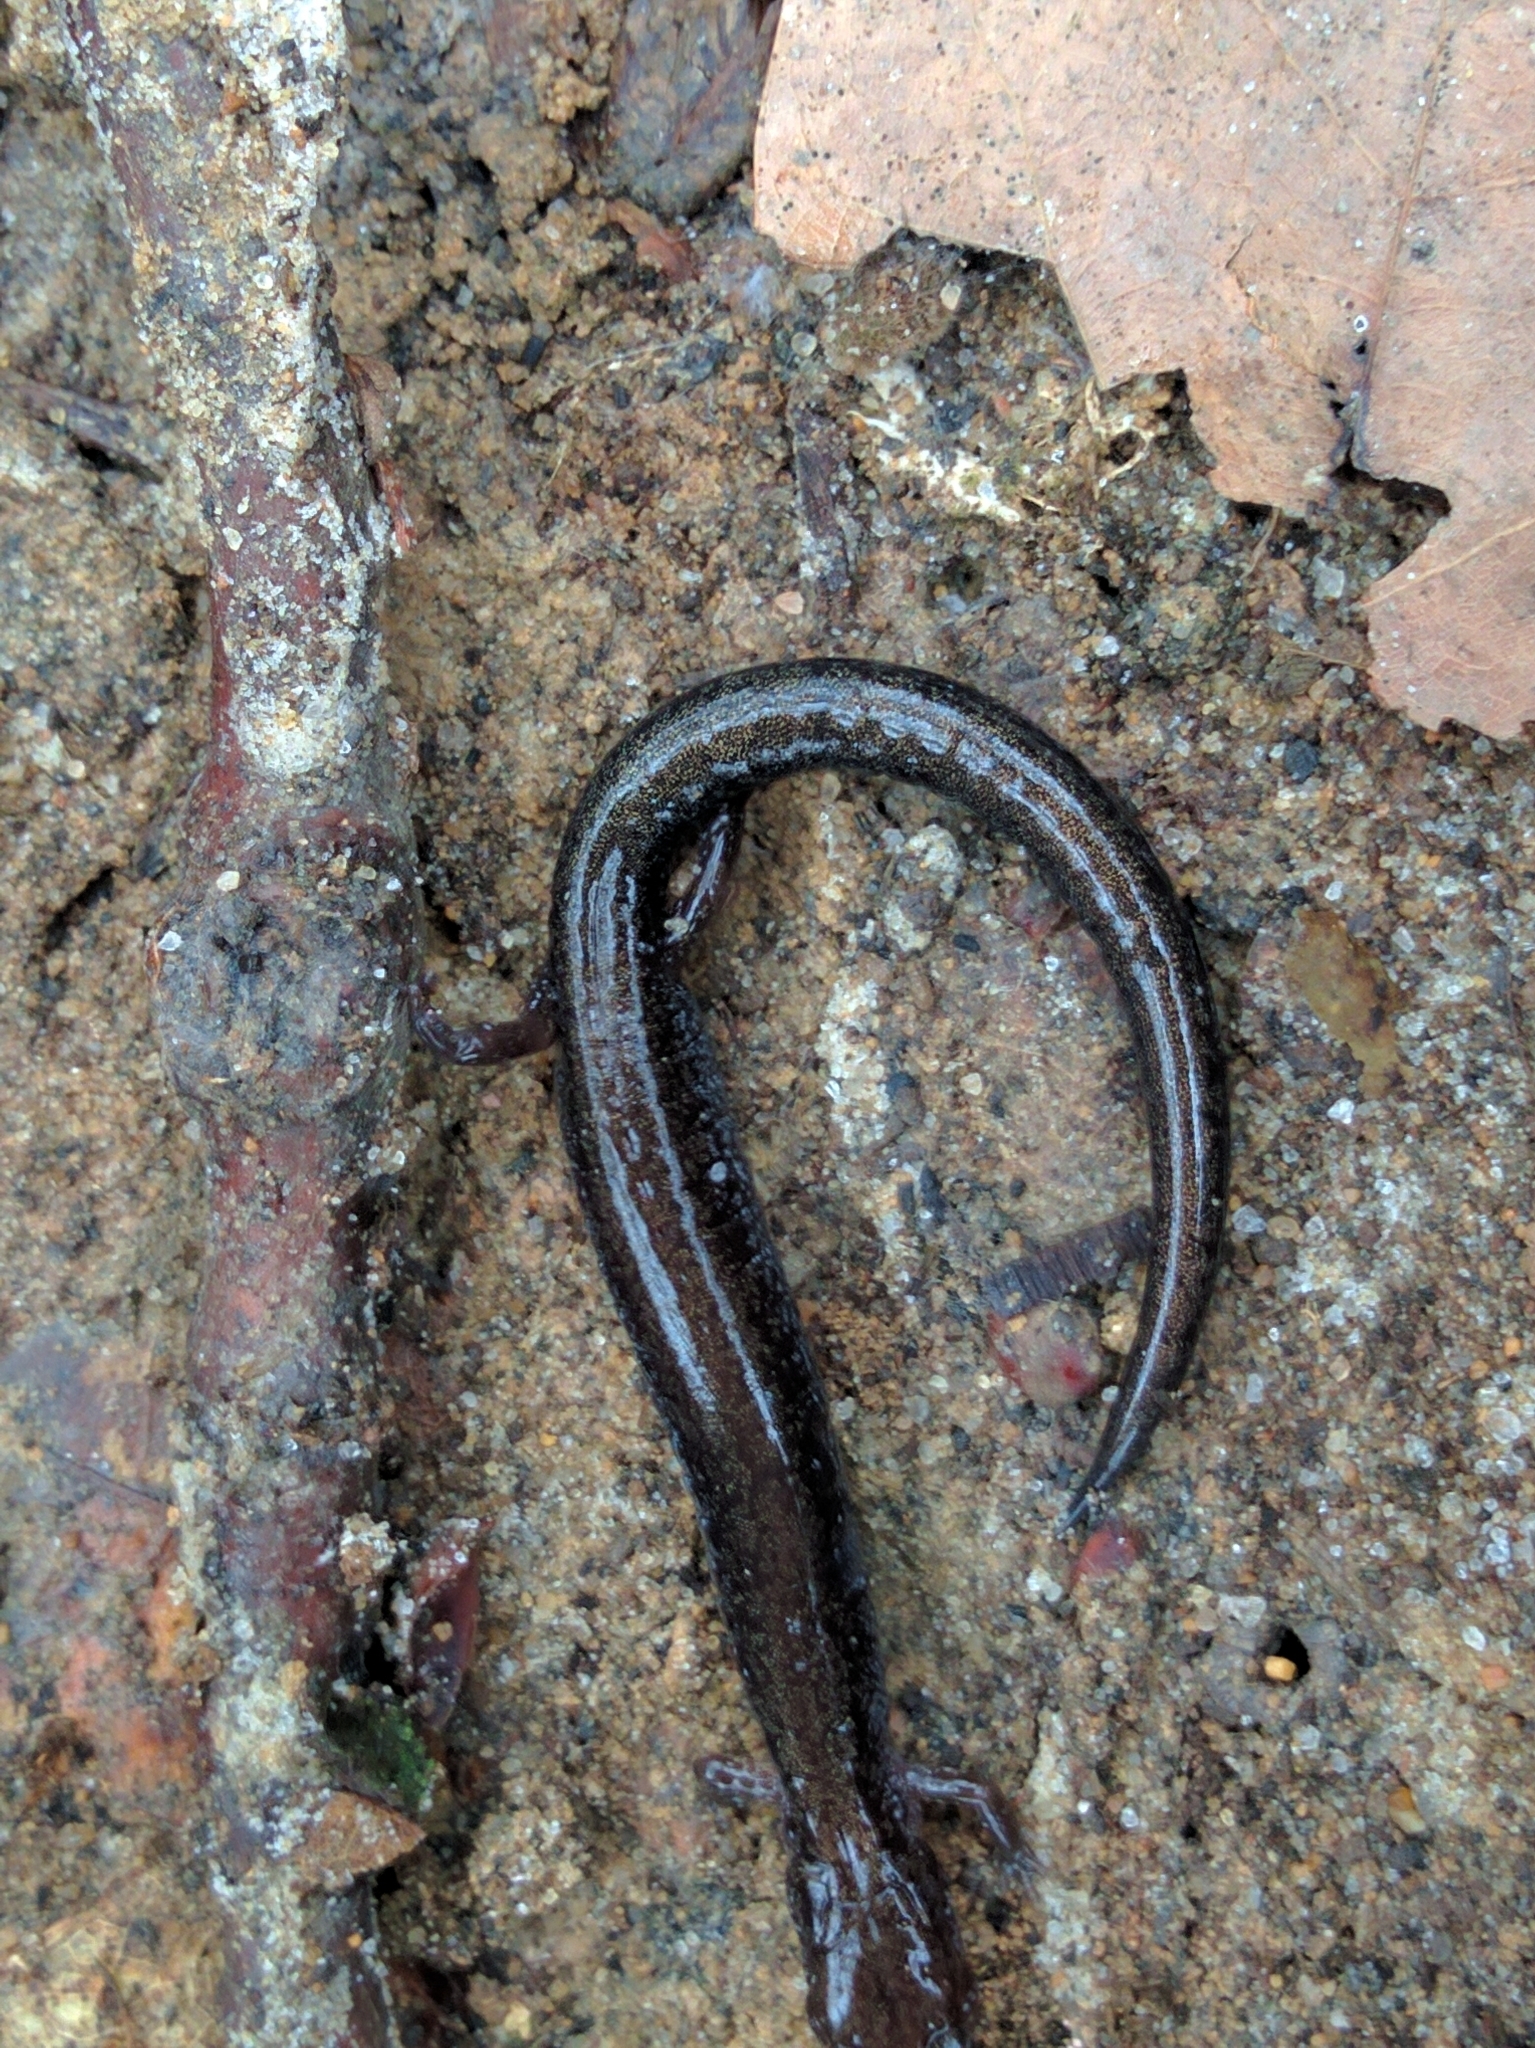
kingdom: Animalia
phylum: Chordata
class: Amphibia
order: Caudata
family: Plethodontidae
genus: Plethodon
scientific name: Plethodon cinereus
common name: Redback salamander
